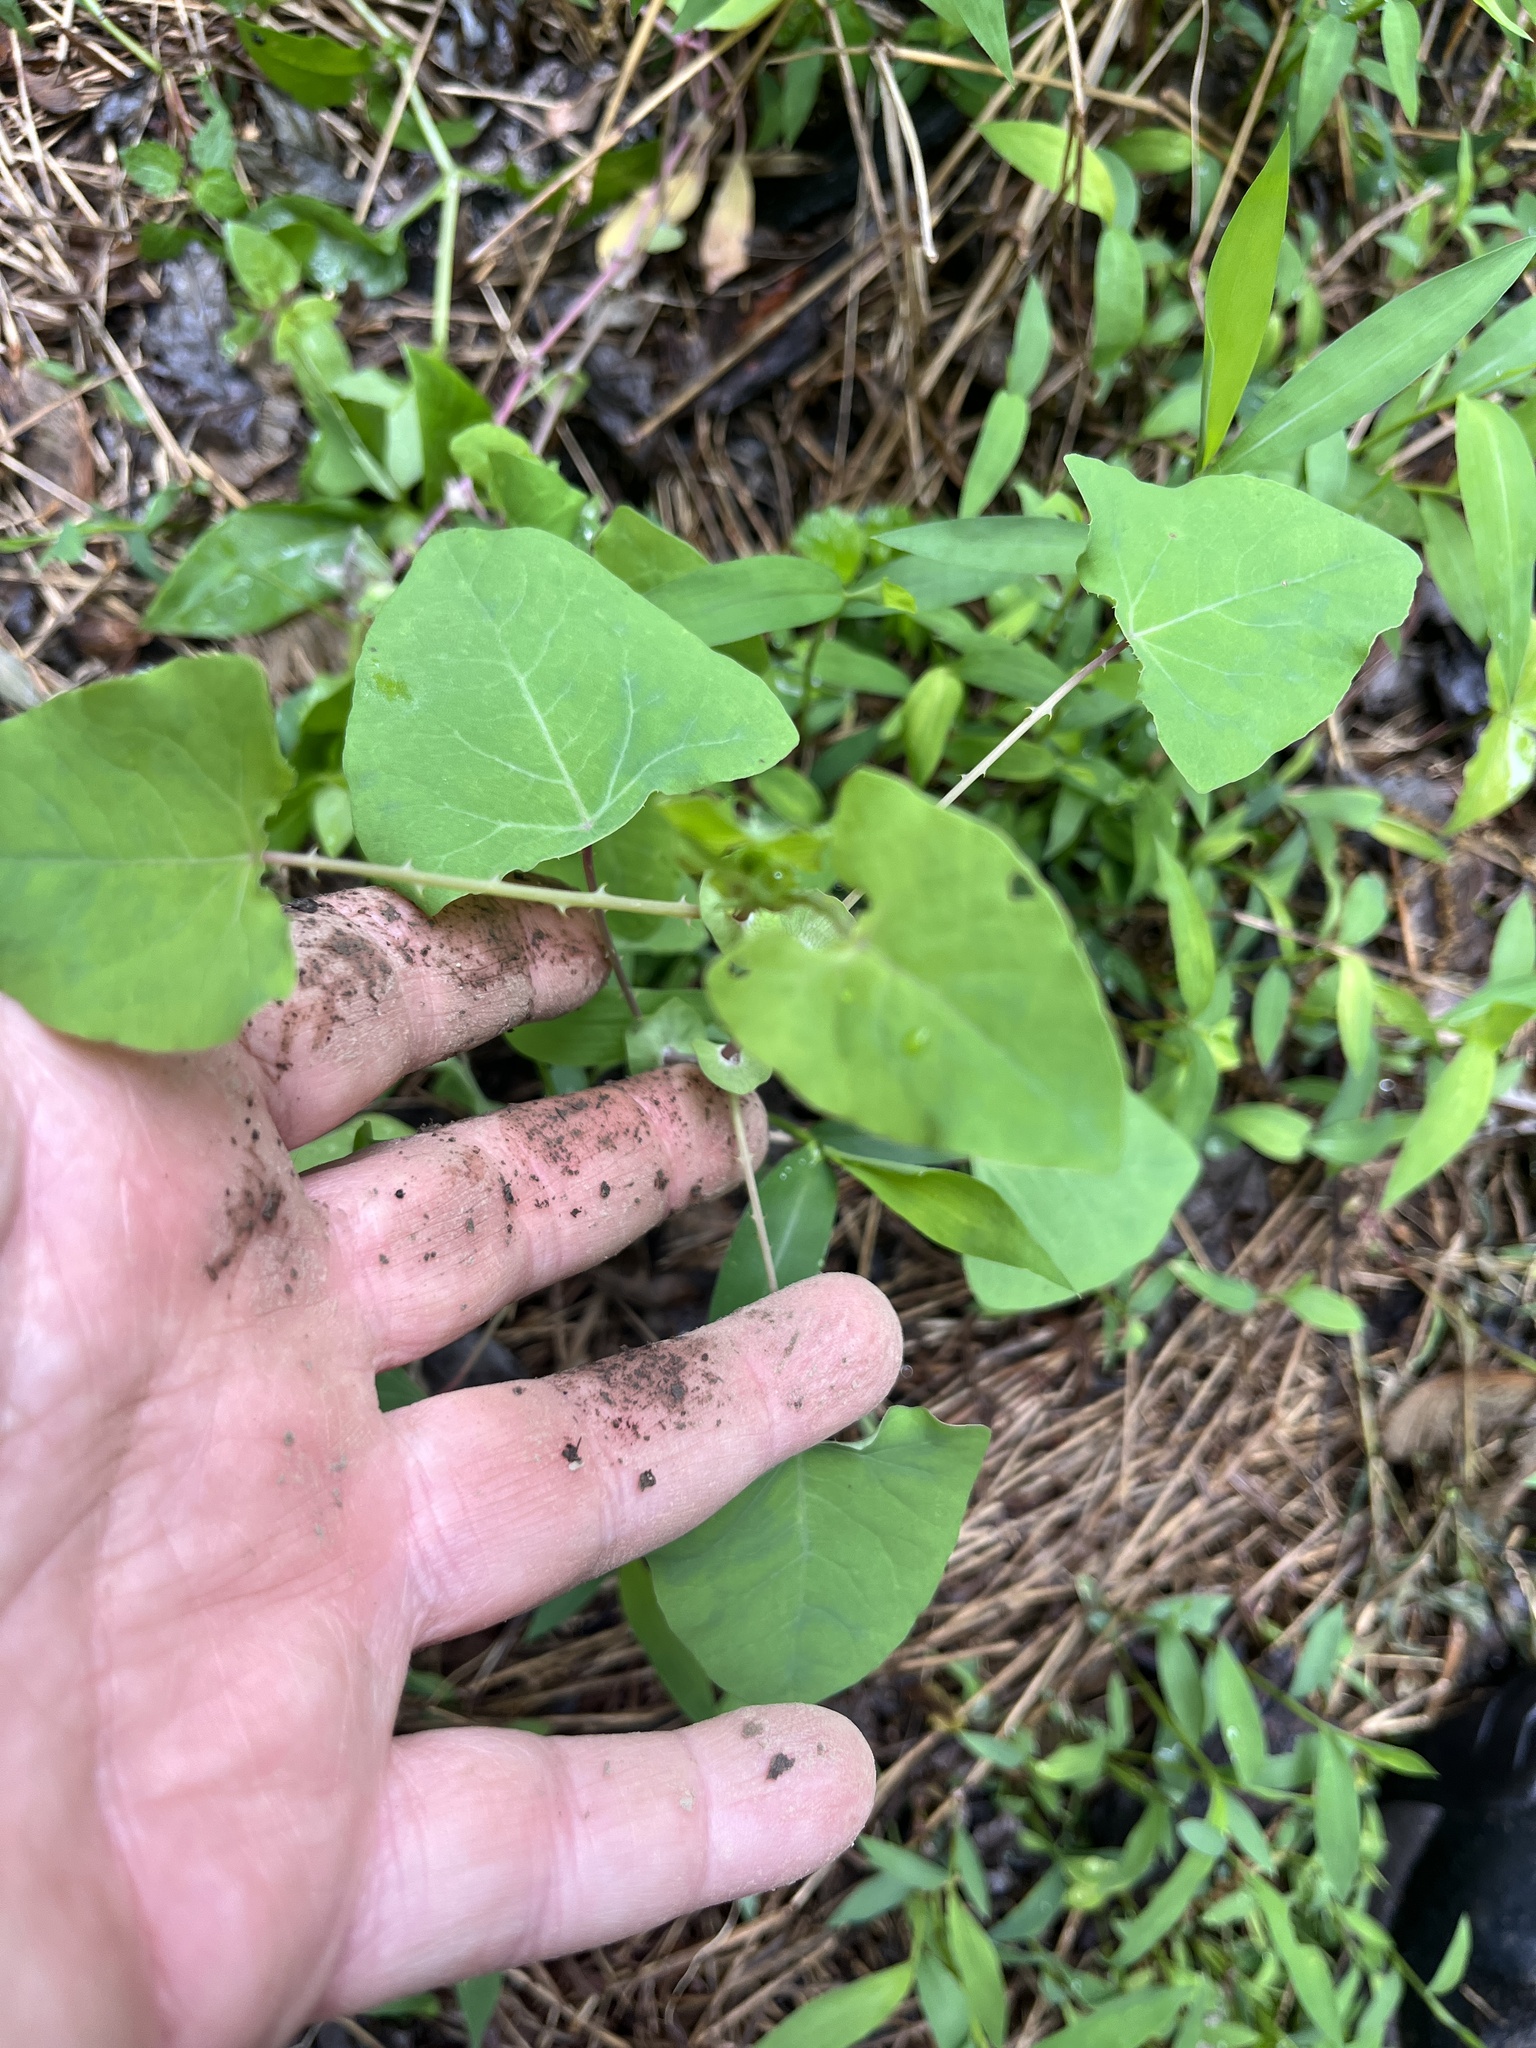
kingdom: Plantae
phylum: Tracheophyta
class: Magnoliopsida
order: Caryophyllales
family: Polygonaceae
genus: Persicaria
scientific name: Persicaria perfoliata
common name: Asiatic tearthumb
